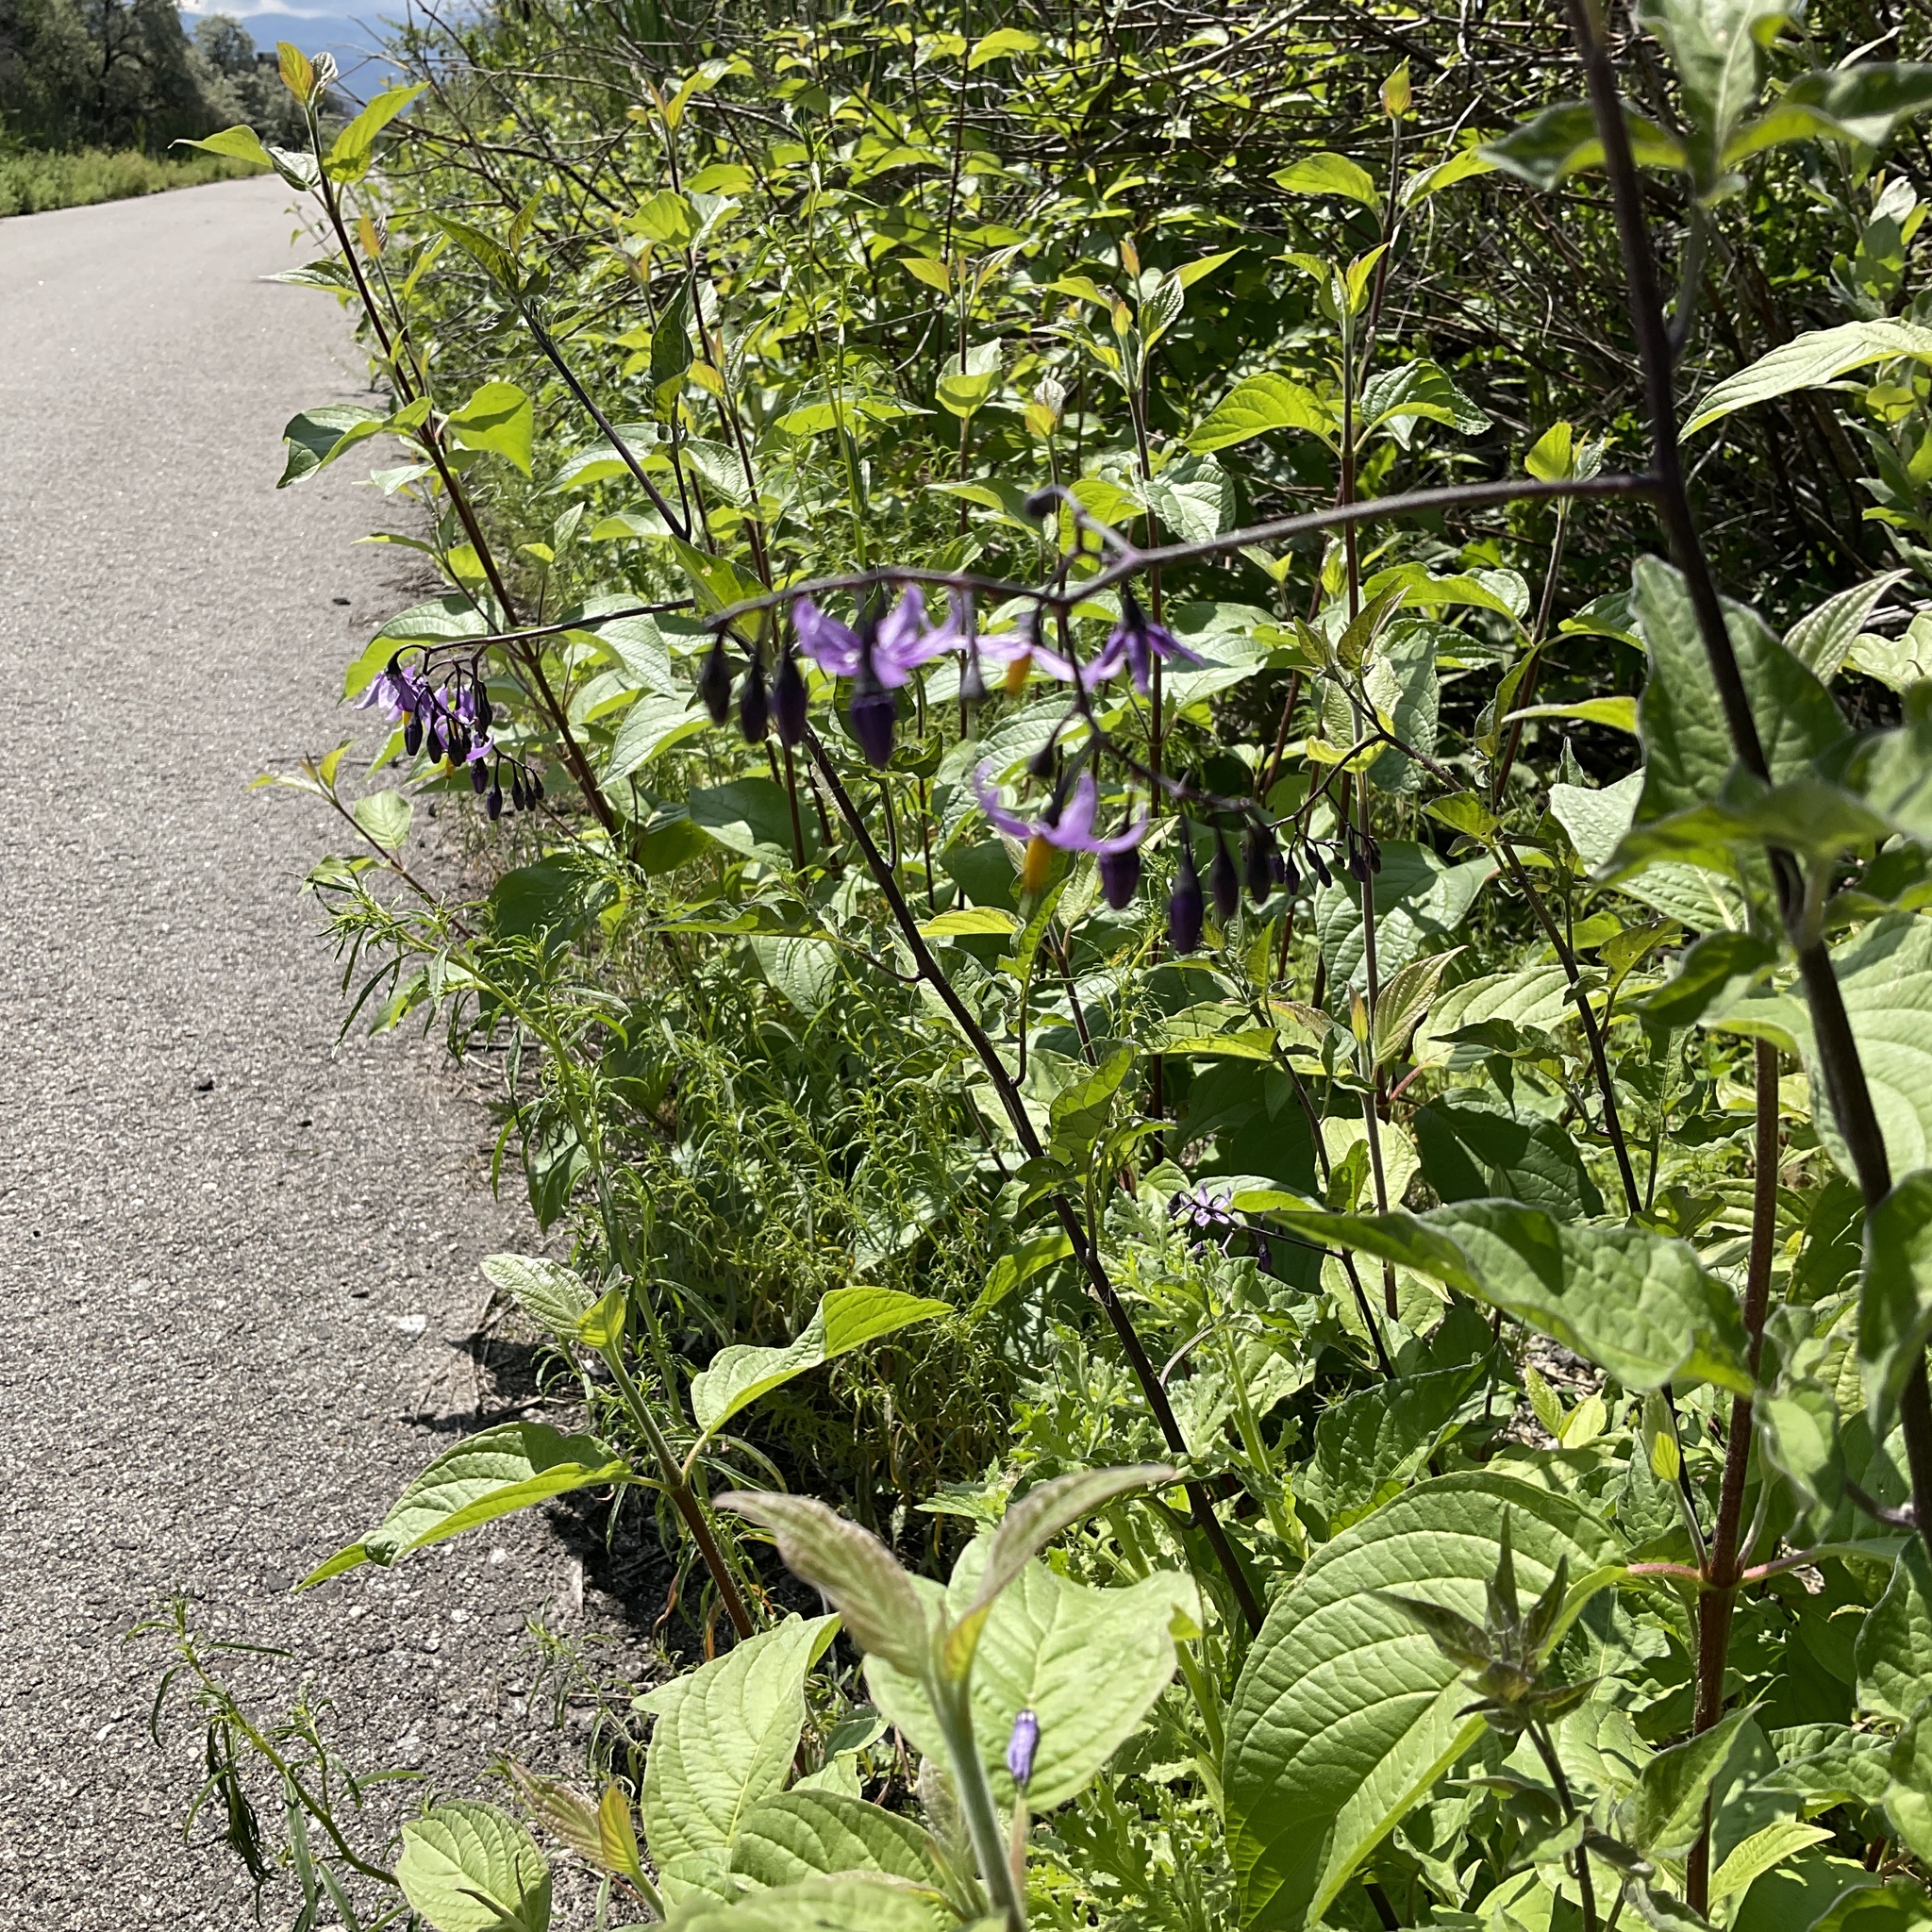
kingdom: Plantae
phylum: Tracheophyta
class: Magnoliopsida
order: Solanales
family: Solanaceae
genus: Solanum
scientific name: Solanum dulcamara
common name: Climbing nightshade
